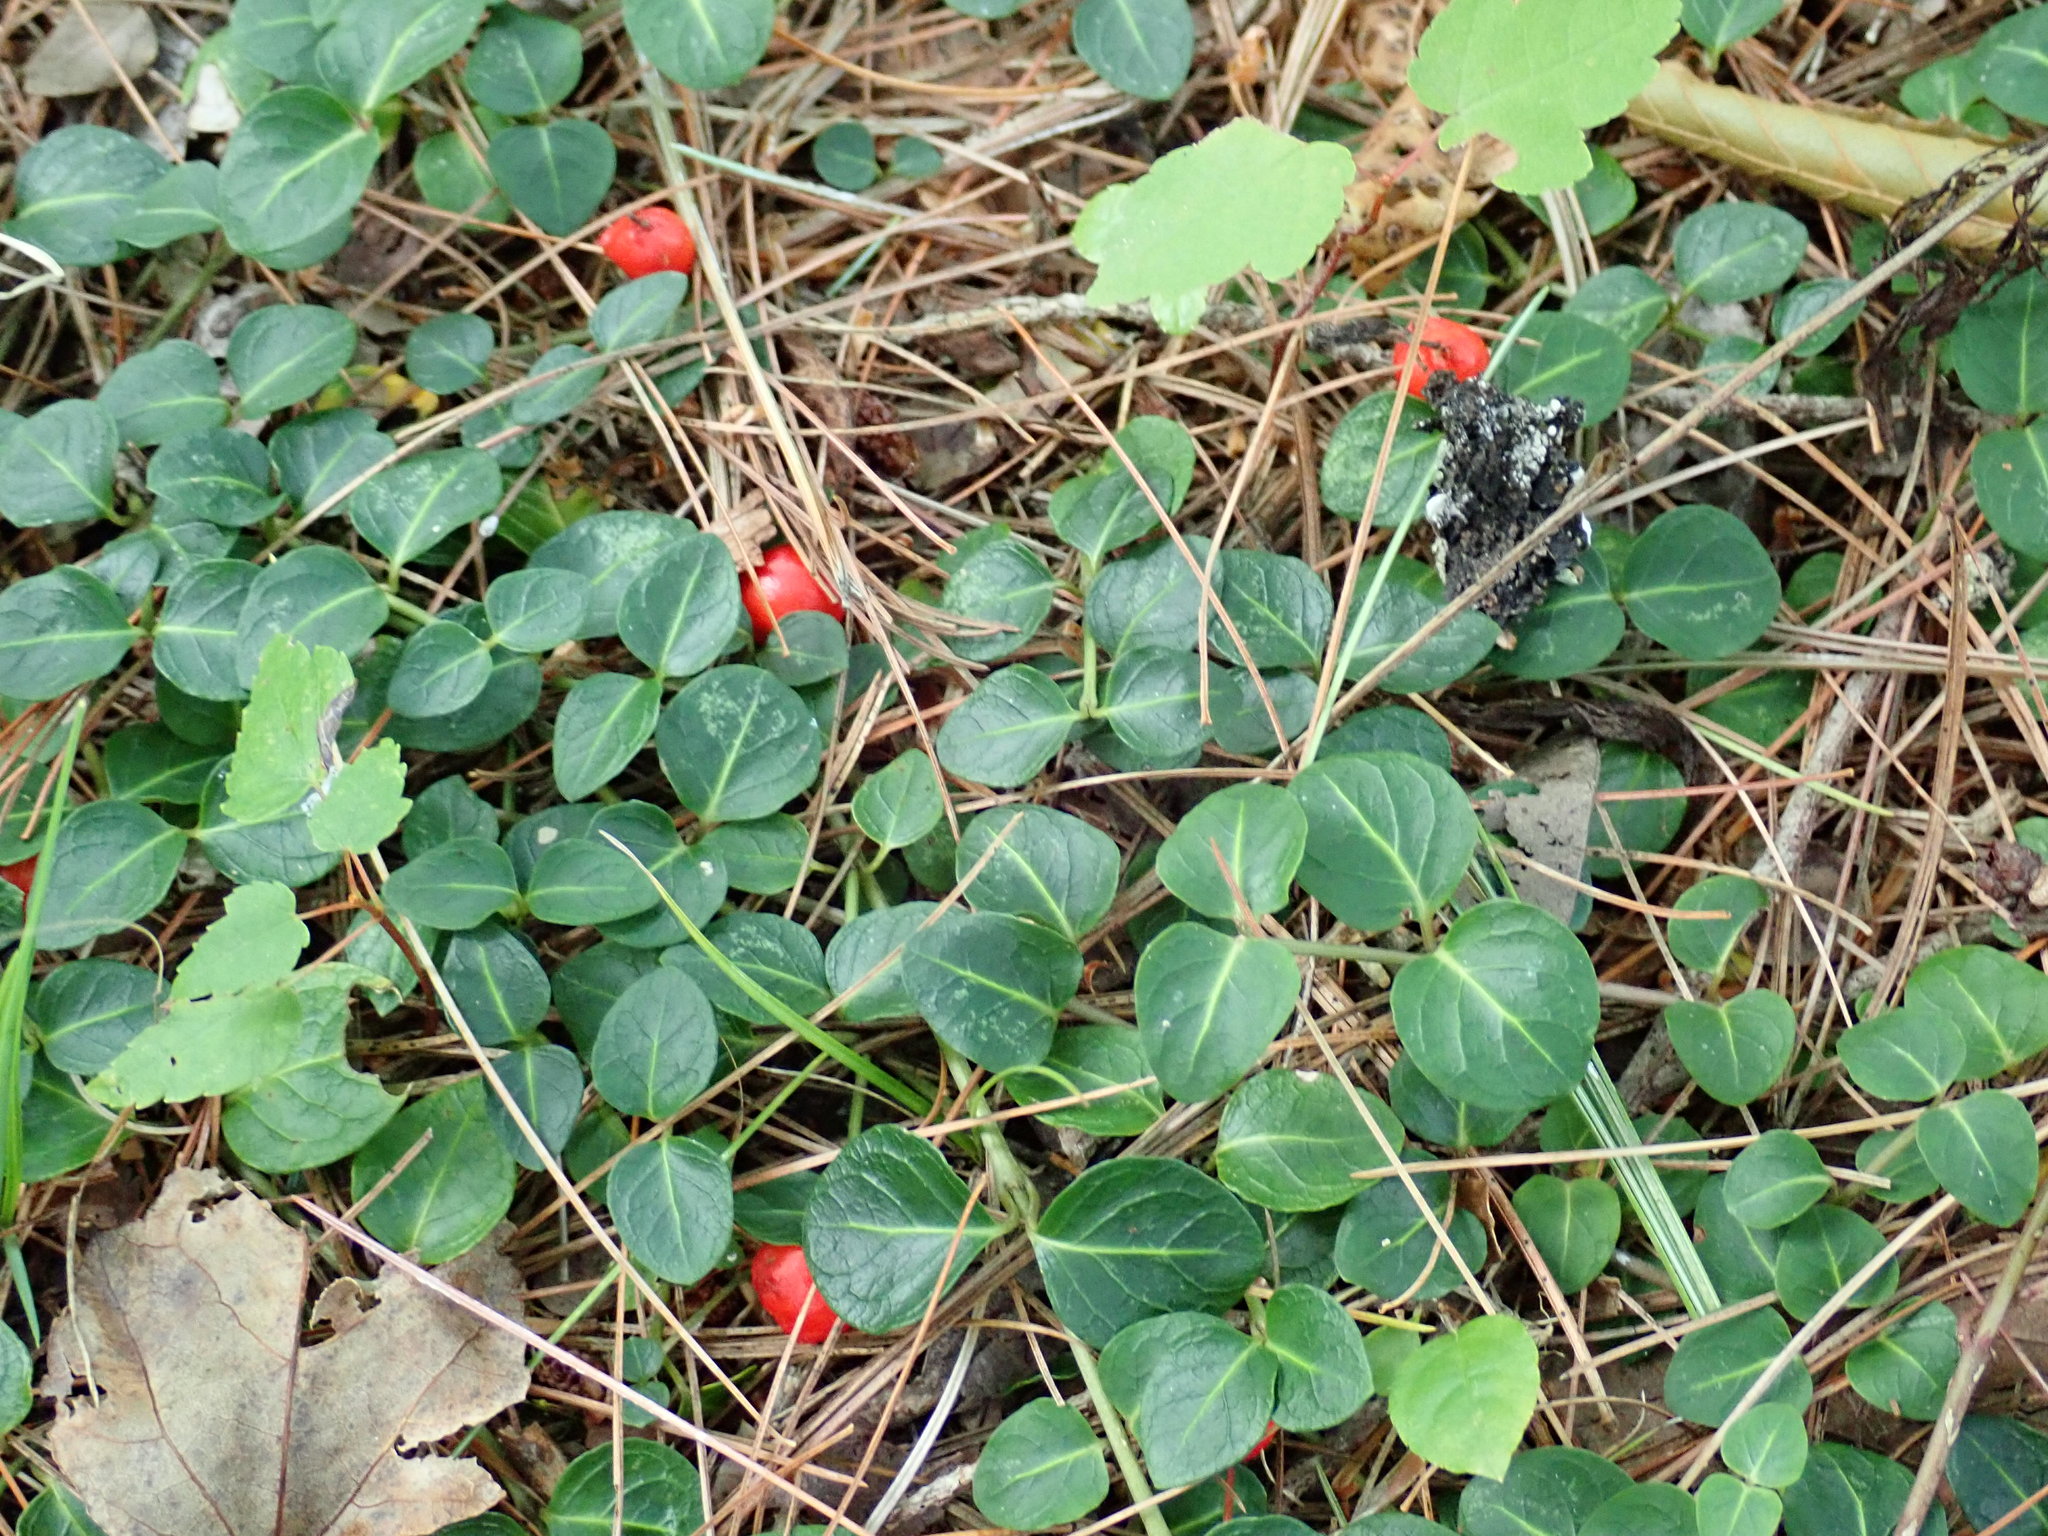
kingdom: Plantae
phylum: Tracheophyta
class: Magnoliopsida
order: Gentianales
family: Rubiaceae
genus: Mitchella
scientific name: Mitchella repens
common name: Partridge-berry
